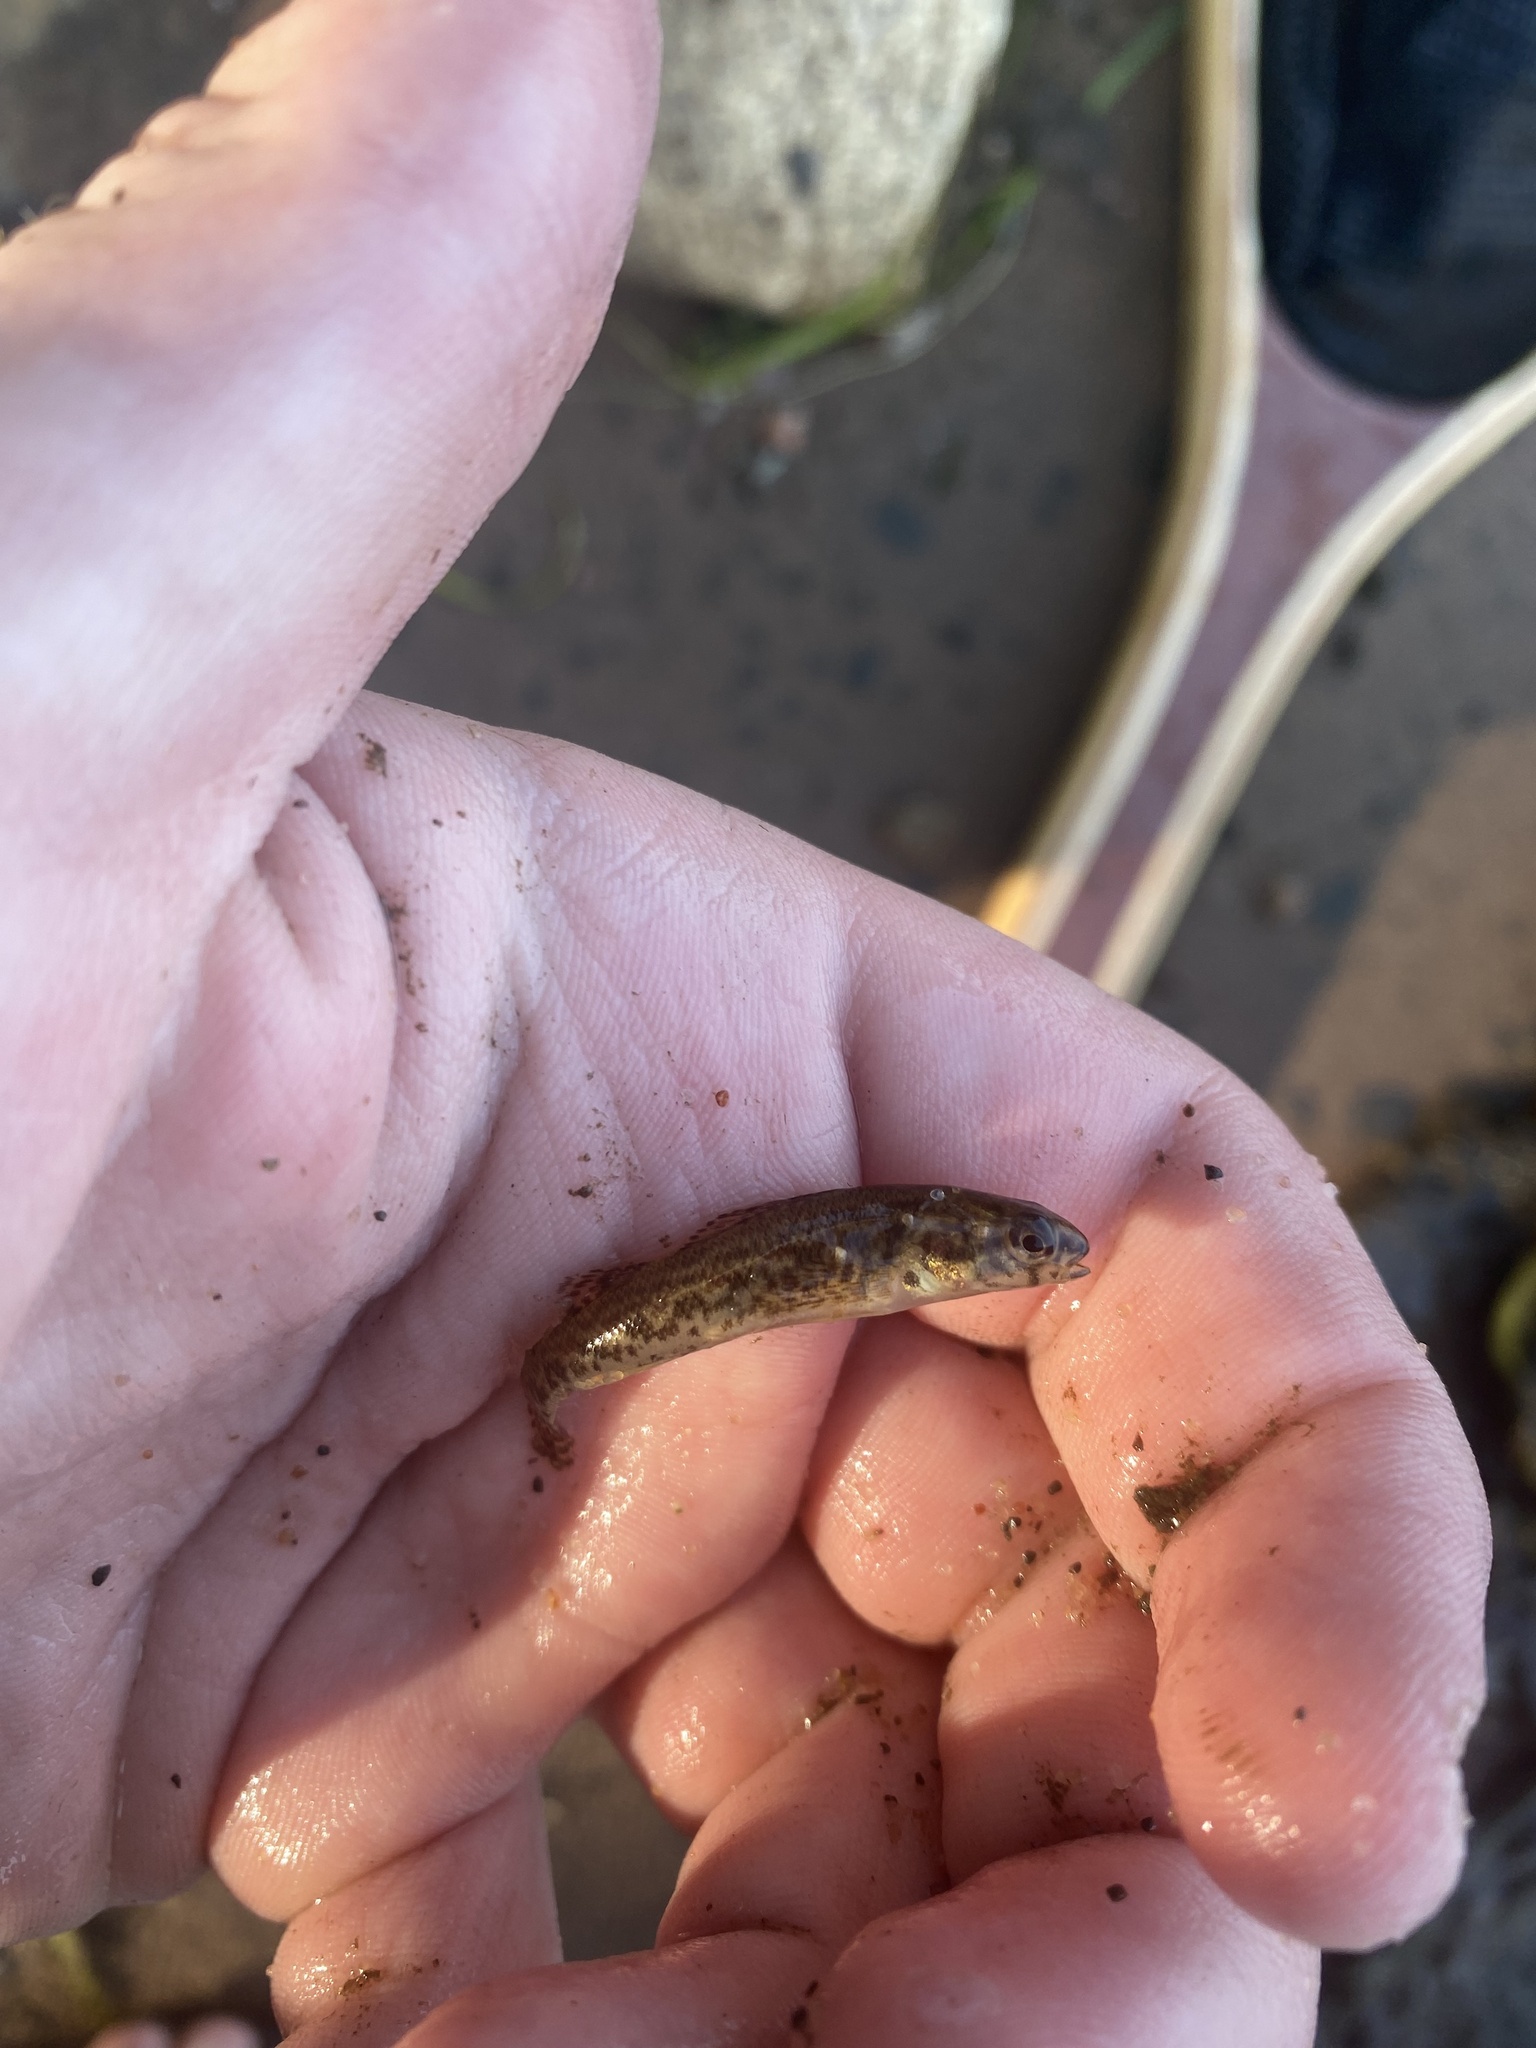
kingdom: Animalia
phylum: Chordata
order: Perciformes
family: Percidae
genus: Etheostoma
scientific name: Etheostoma exile
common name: Iowa darter
